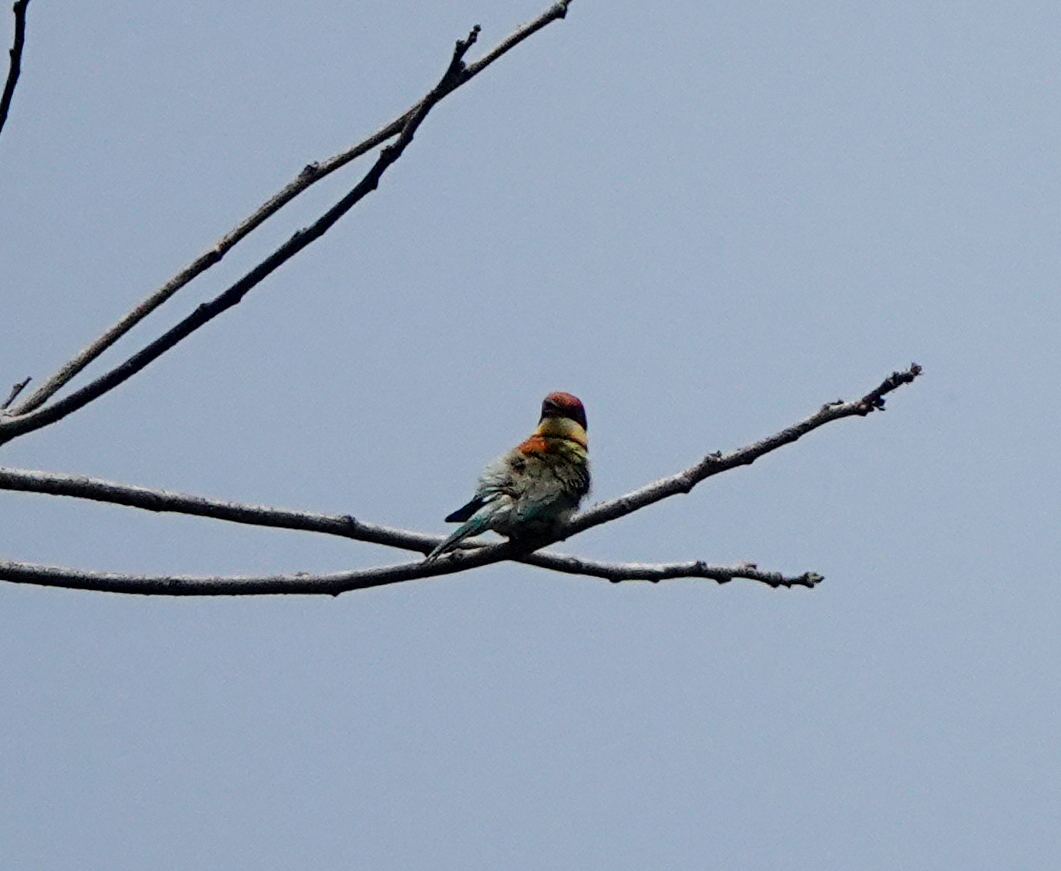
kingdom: Animalia
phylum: Chordata
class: Aves
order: Coraciiformes
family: Meropidae
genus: Merops
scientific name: Merops leschenaulti
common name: Chestnut-headed bee-eater
